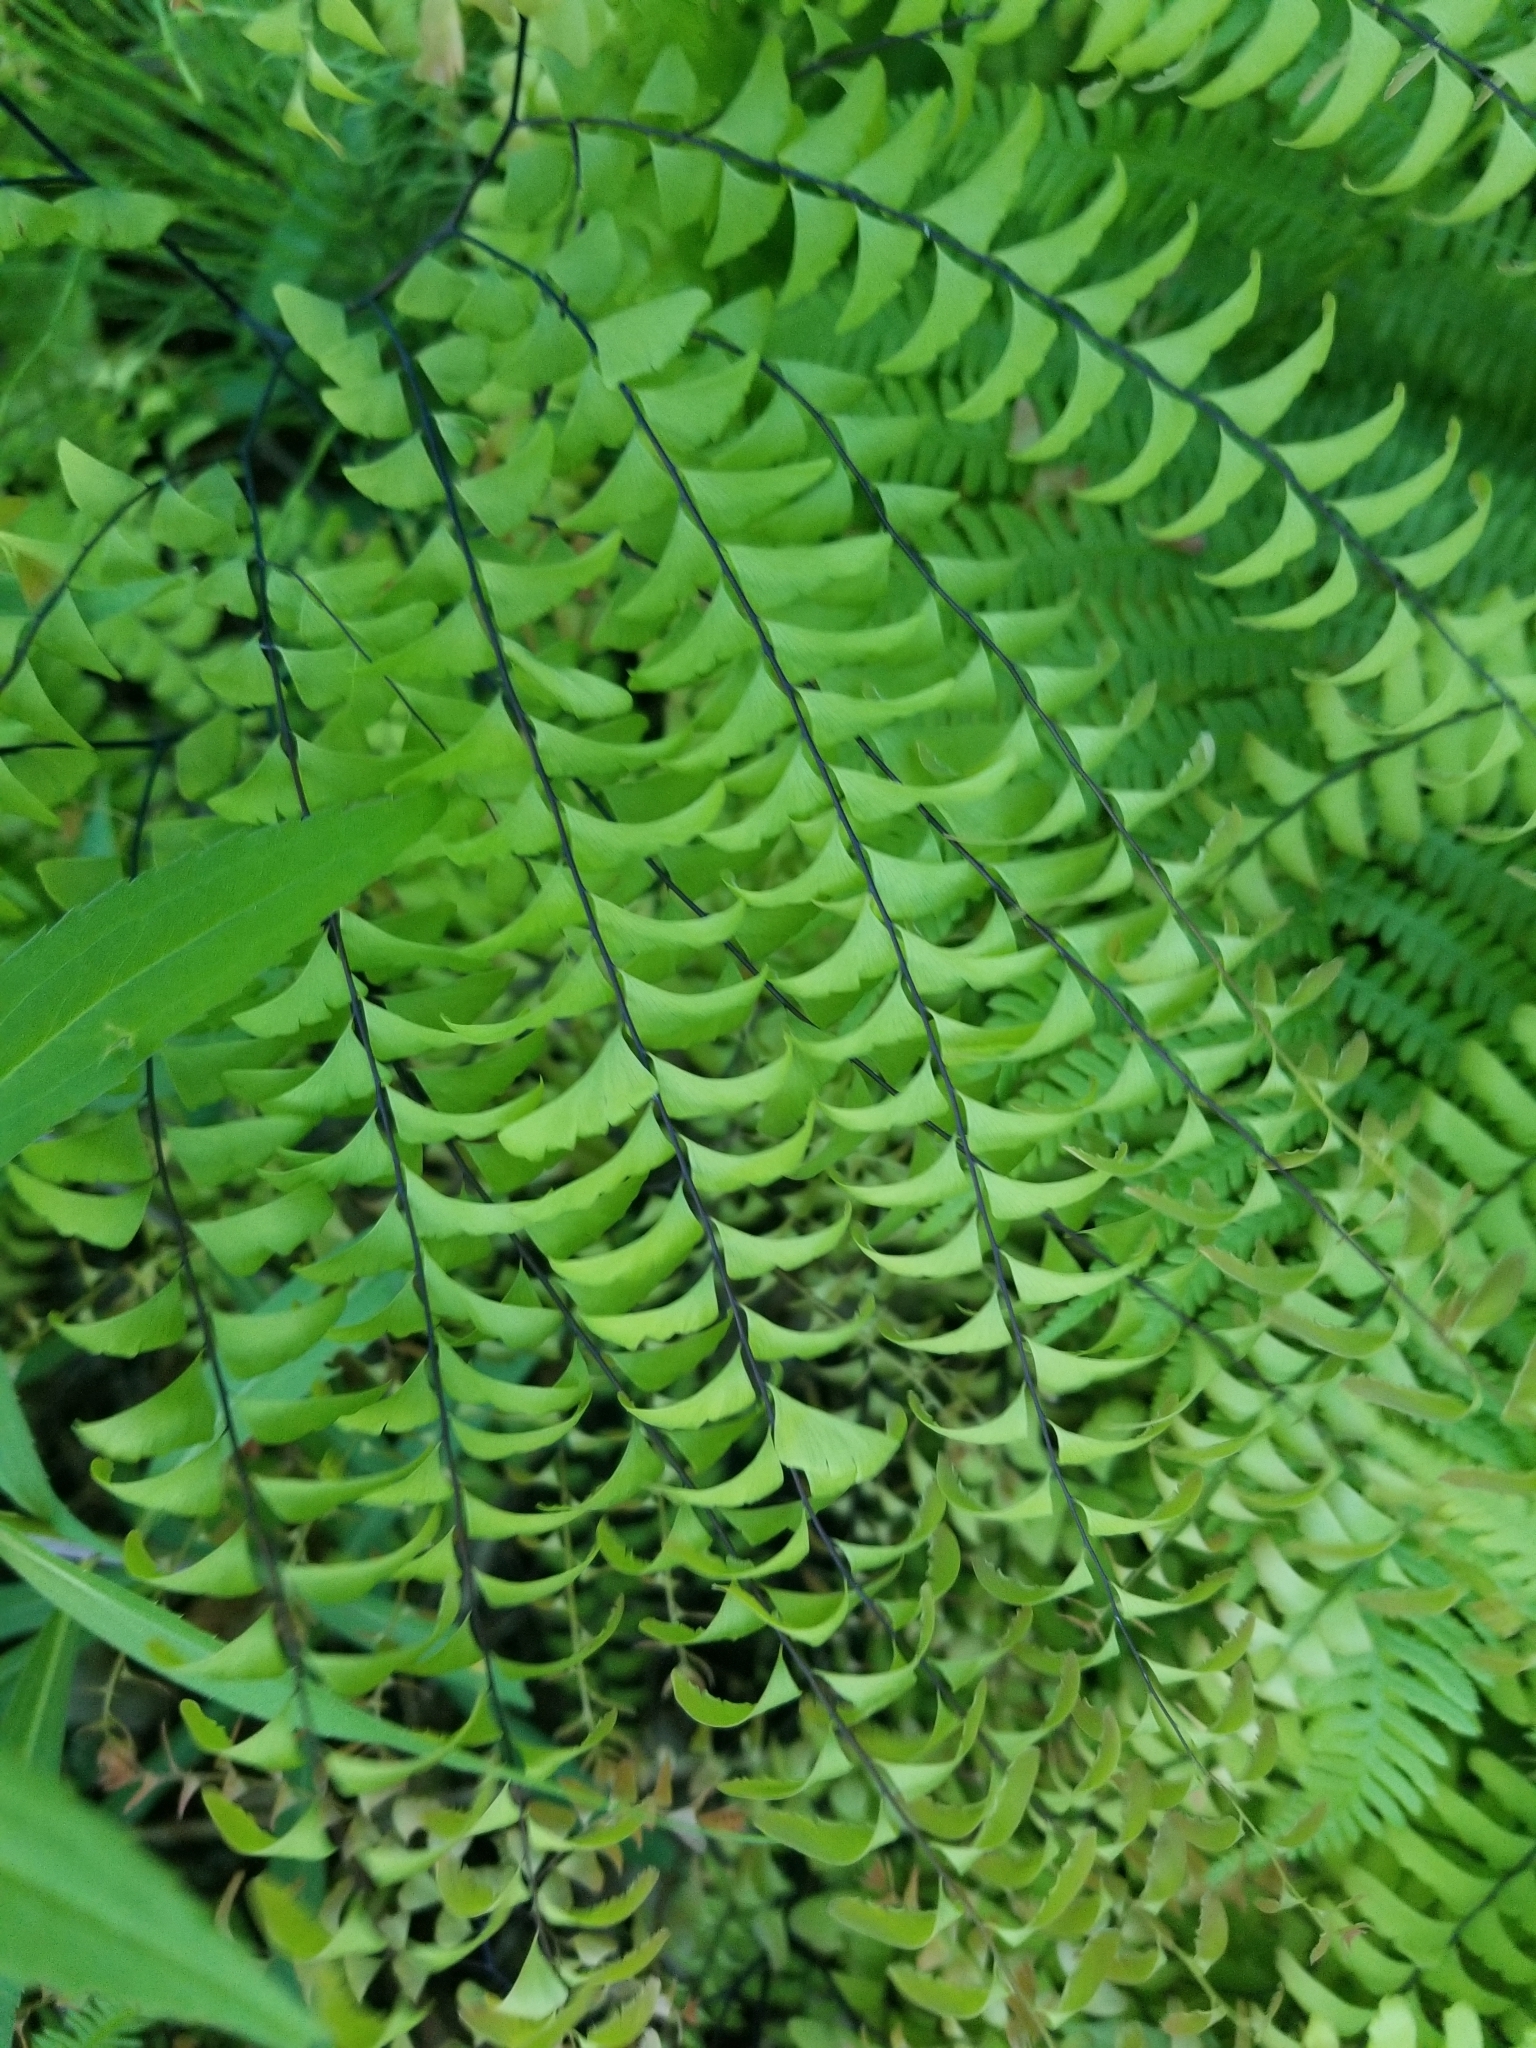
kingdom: Plantae
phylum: Tracheophyta
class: Polypodiopsida
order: Polypodiales
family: Pteridaceae
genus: Adiantum
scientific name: Adiantum pedatum
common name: Five-finger fern
